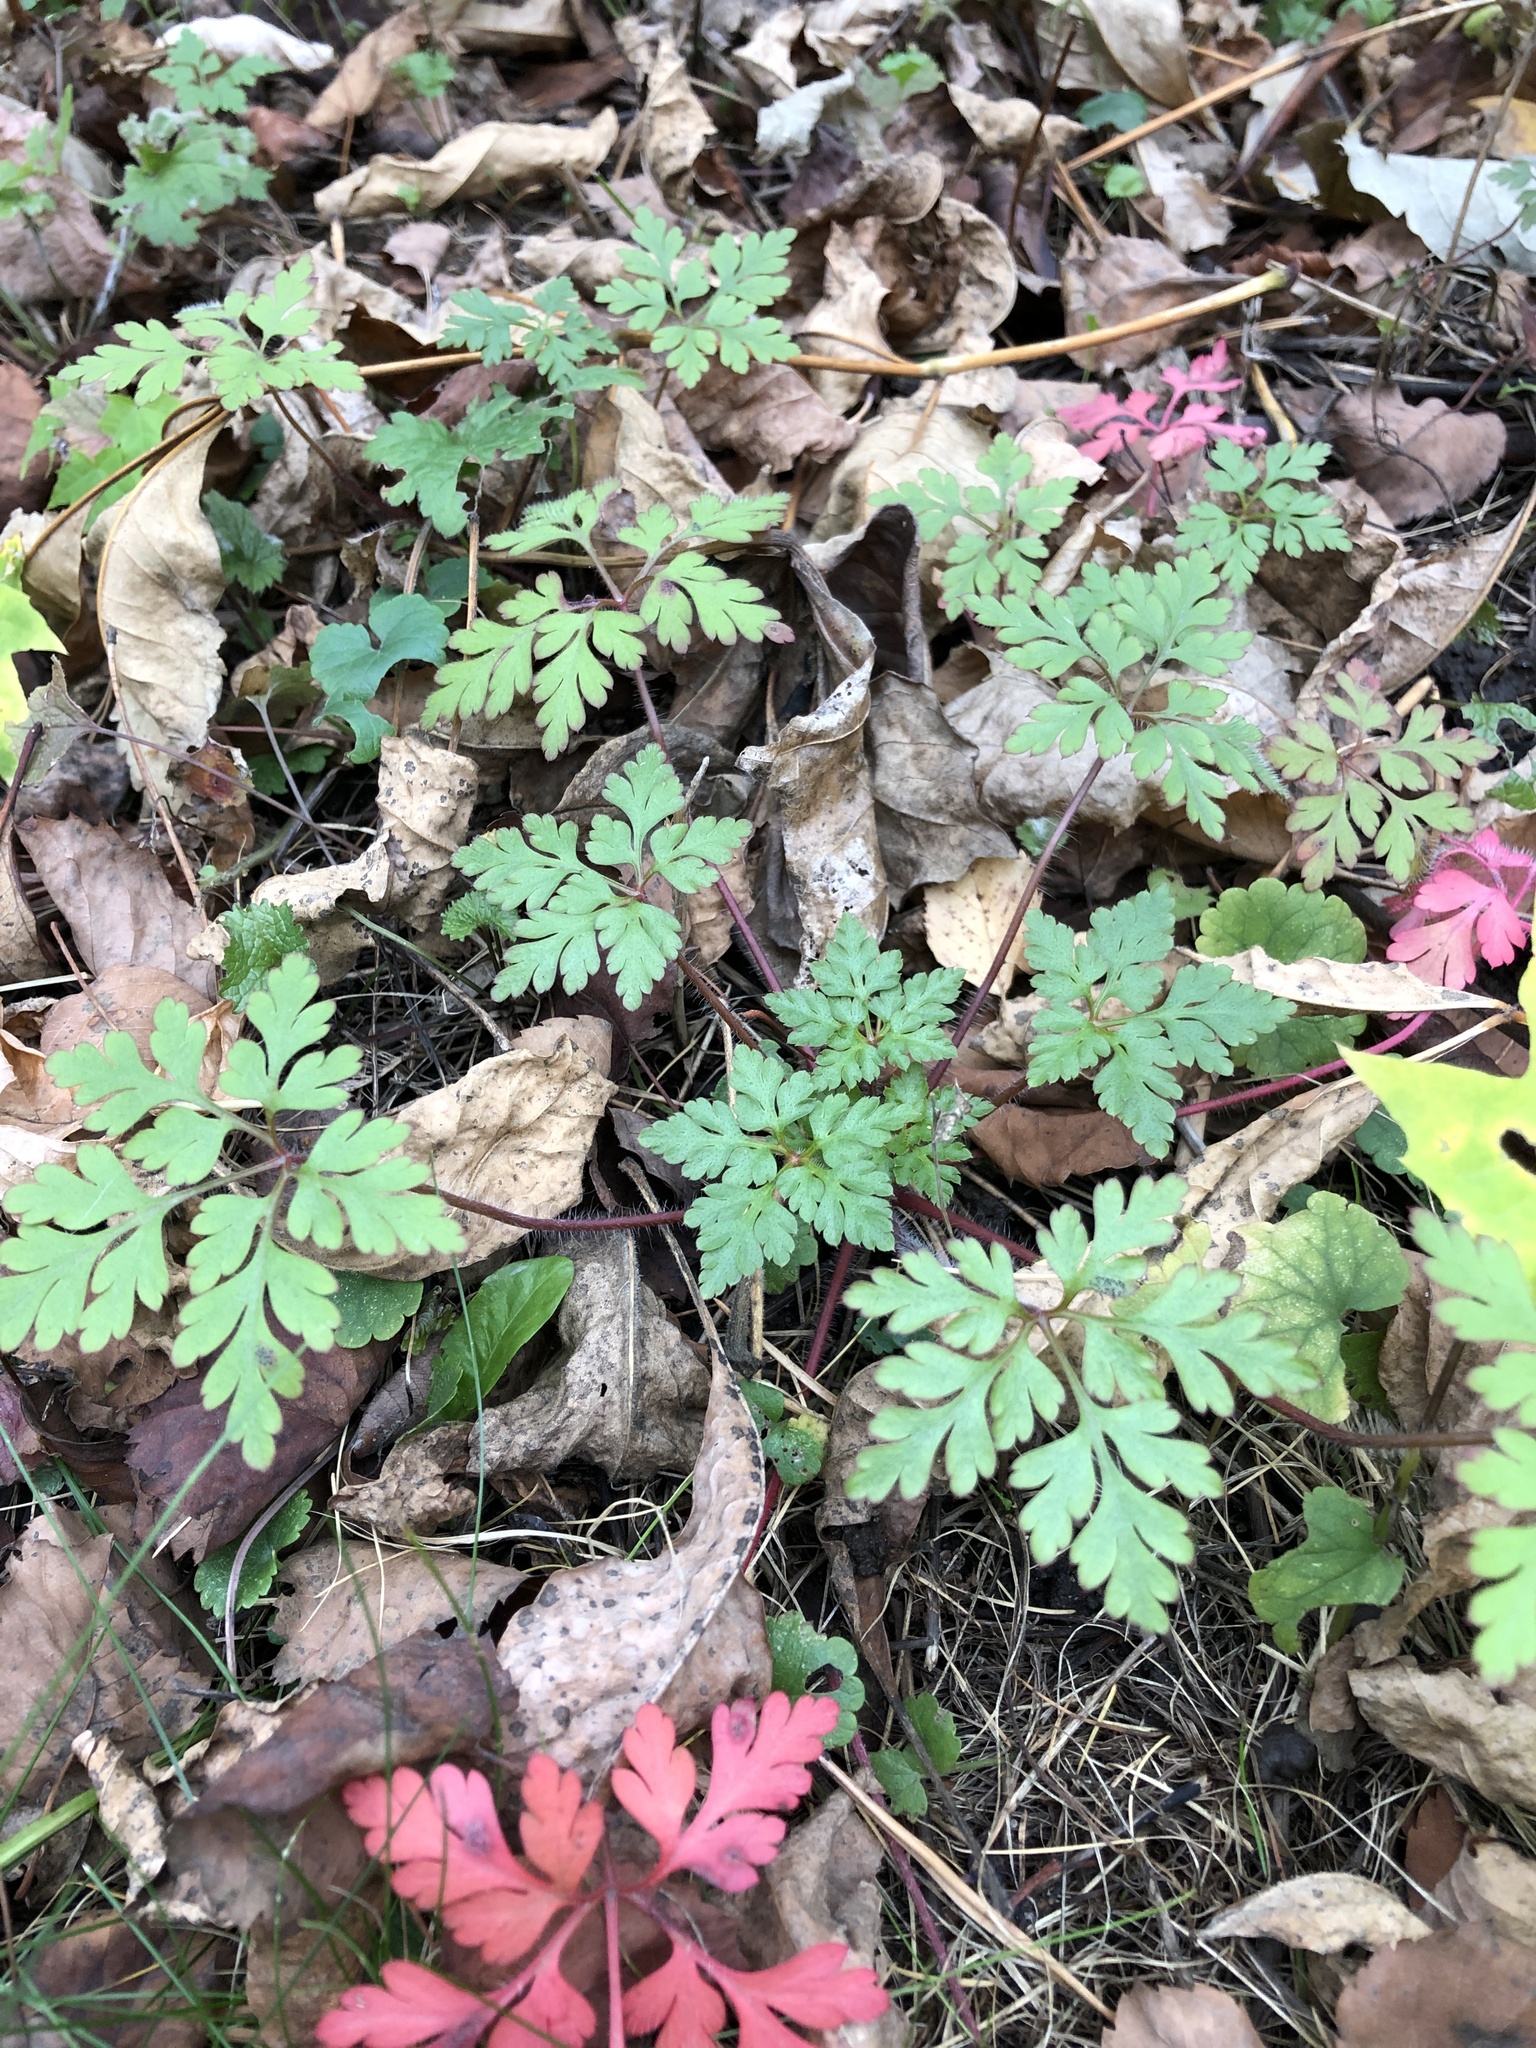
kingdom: Plantae
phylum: Tracheophyta
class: Magnoliopsida
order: Geraniales
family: Geraniaceae
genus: Geranium
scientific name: Geranium robertianum
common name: Herb-robert
